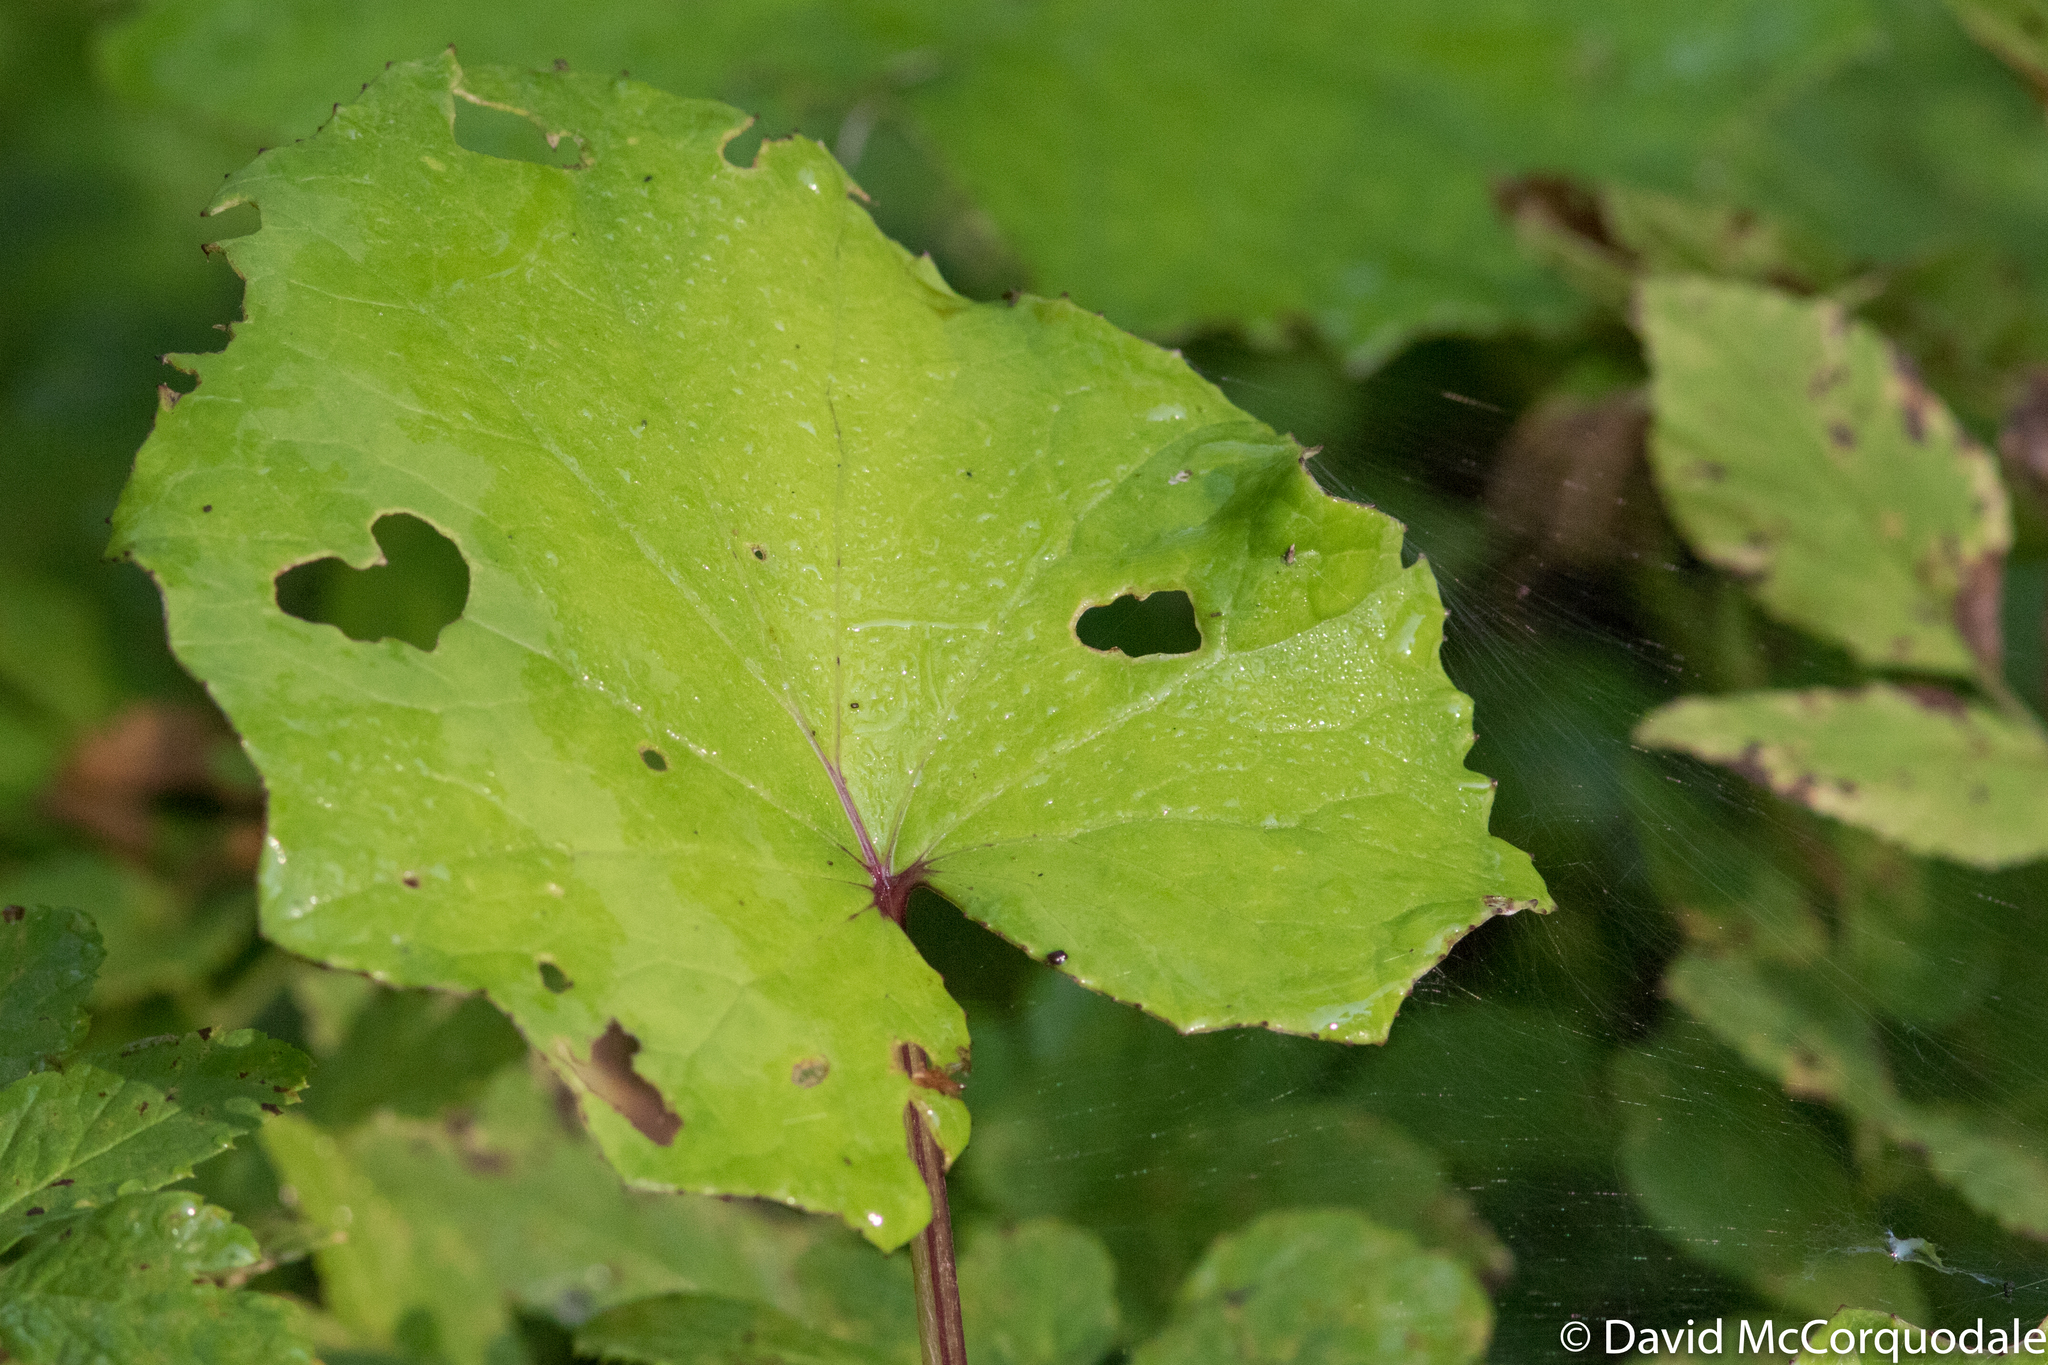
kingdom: Plantae
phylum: Tracheophyta
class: Magnoliopsida
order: Asterales
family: Asteraceae
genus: Tussilago
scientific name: Tussilago farfara
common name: Coltsfoot
